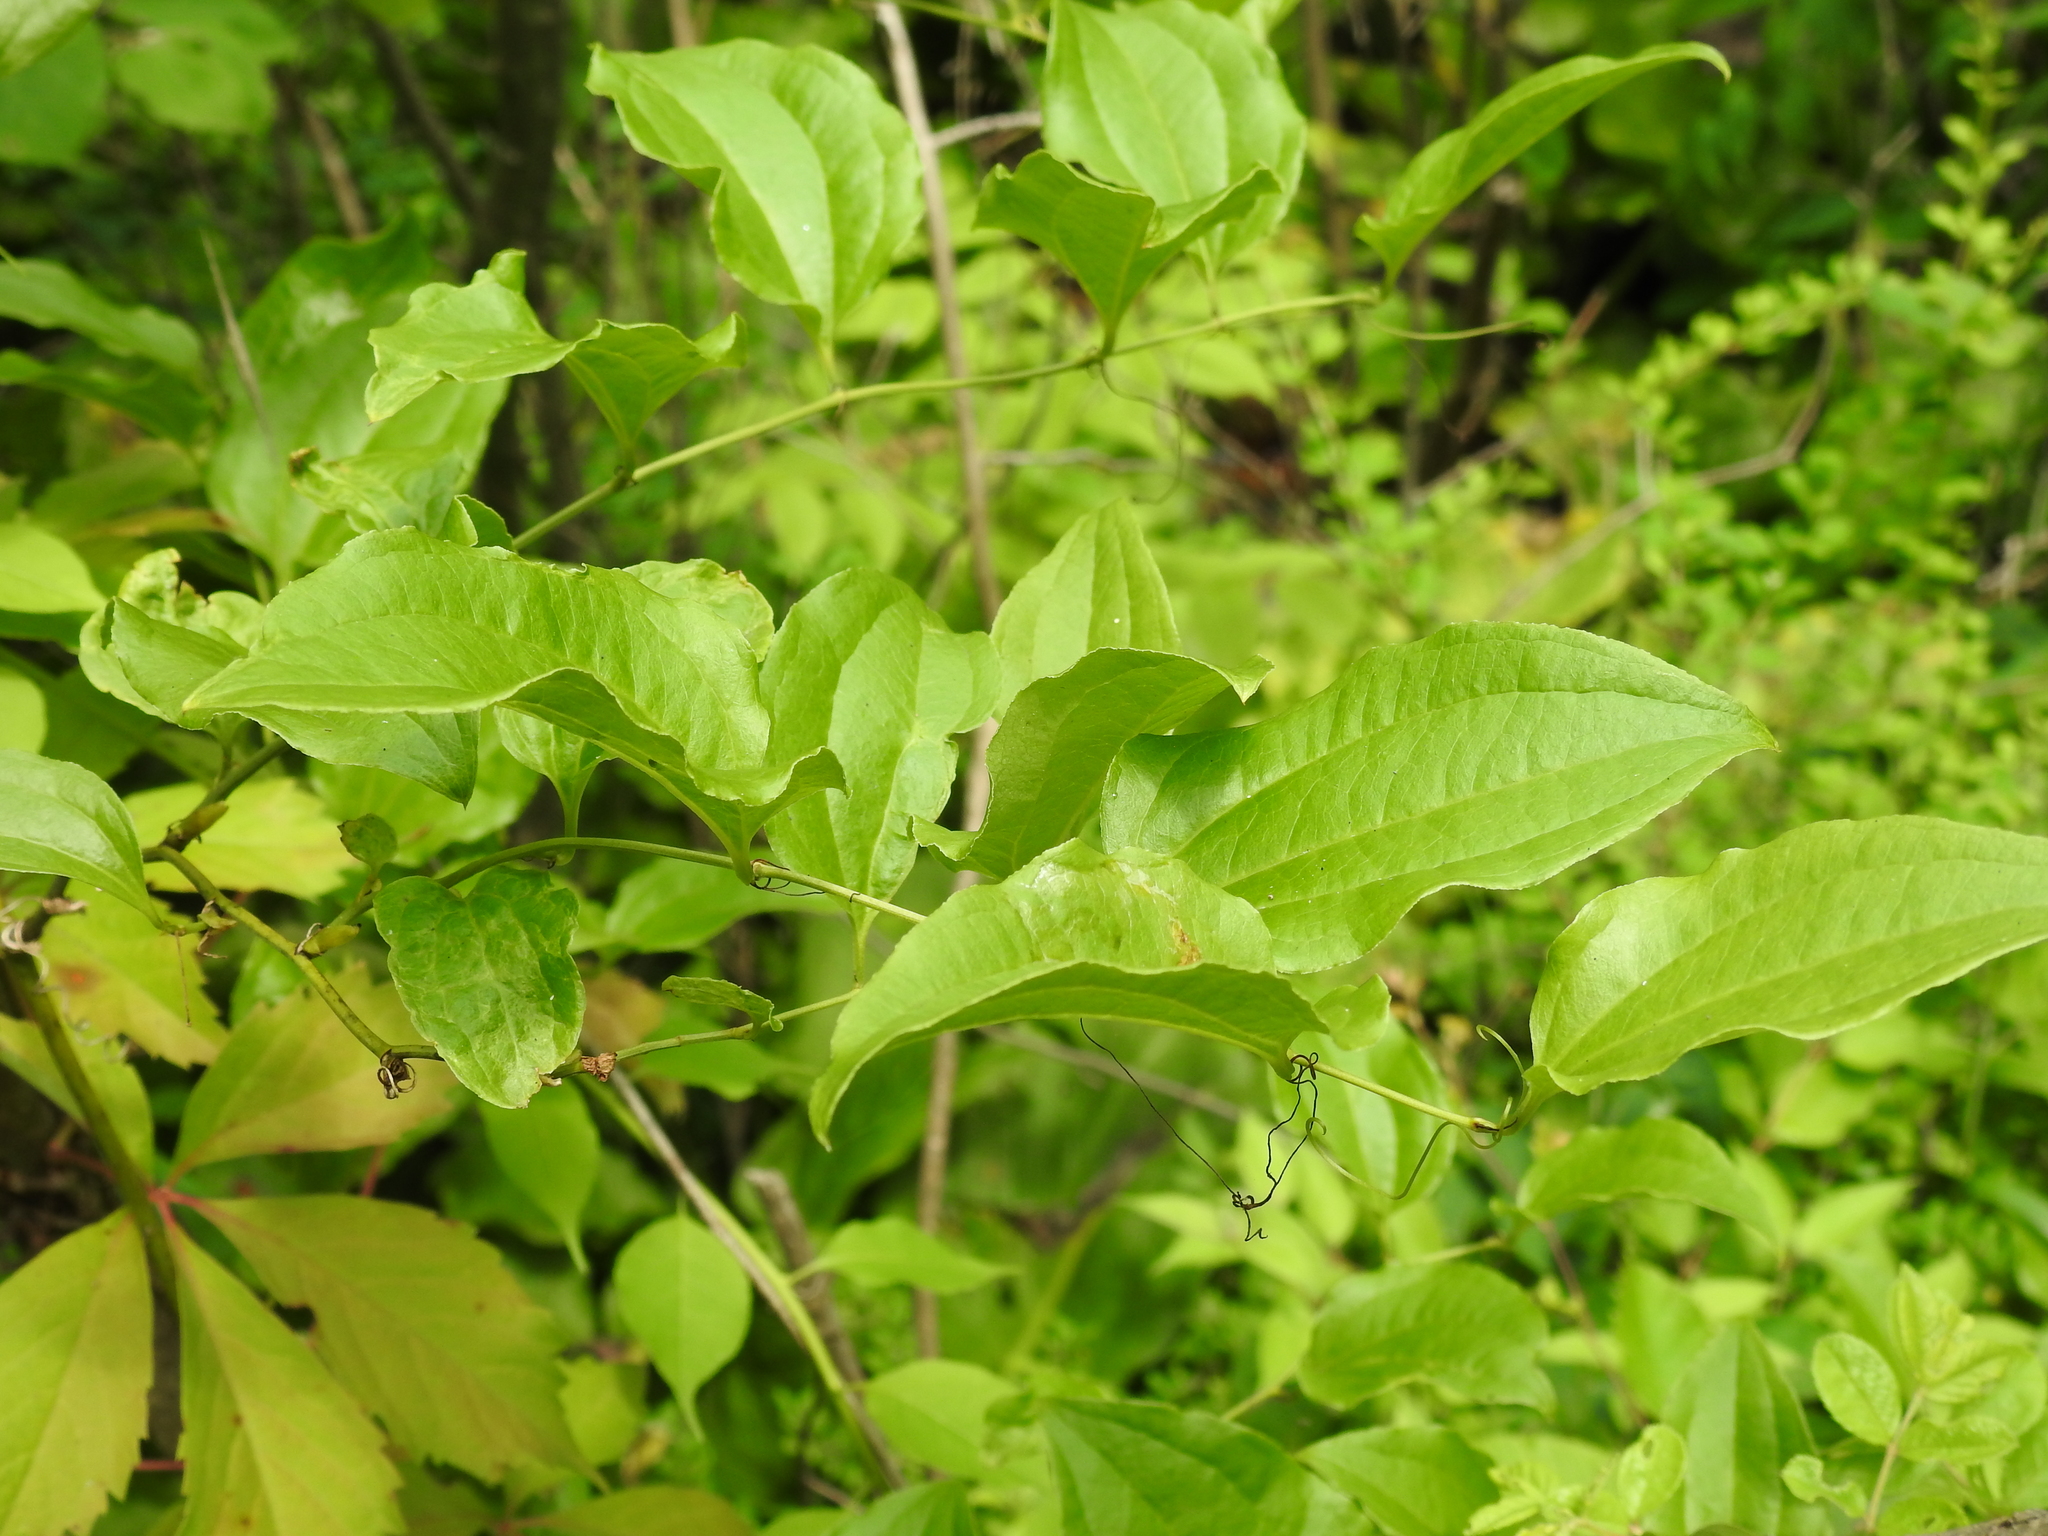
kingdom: Plantae
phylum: Tracheophyta
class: Liliopsida
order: Liliales
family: Smilacaceae
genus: Smilax
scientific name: Smilax tamnoides
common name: Hellfetter
